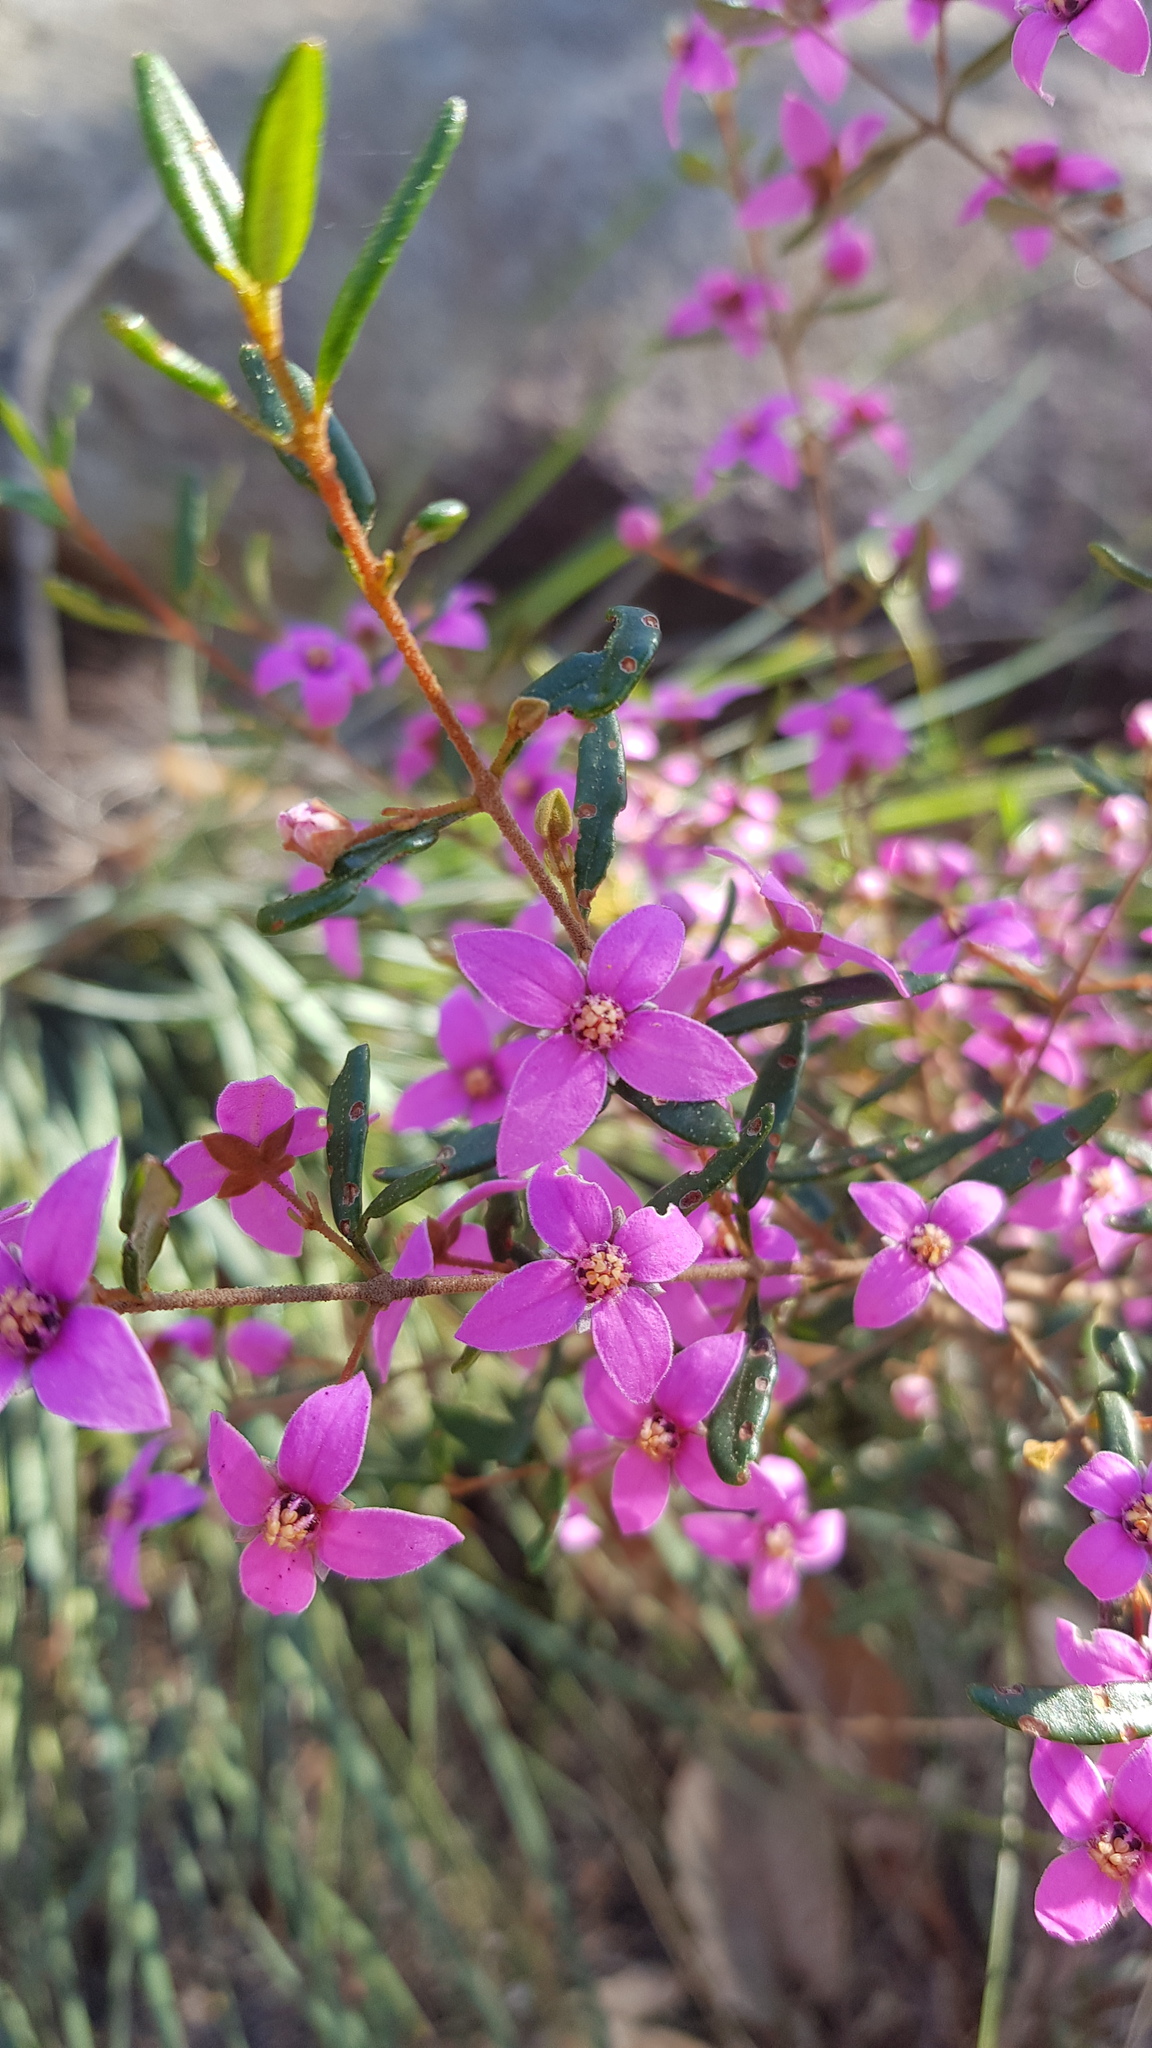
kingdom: Plantae
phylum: Tracheophyta
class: Magnoliopsida
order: Sapindales
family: Rutaceae
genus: Boronia
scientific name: Boronia ledifolia
